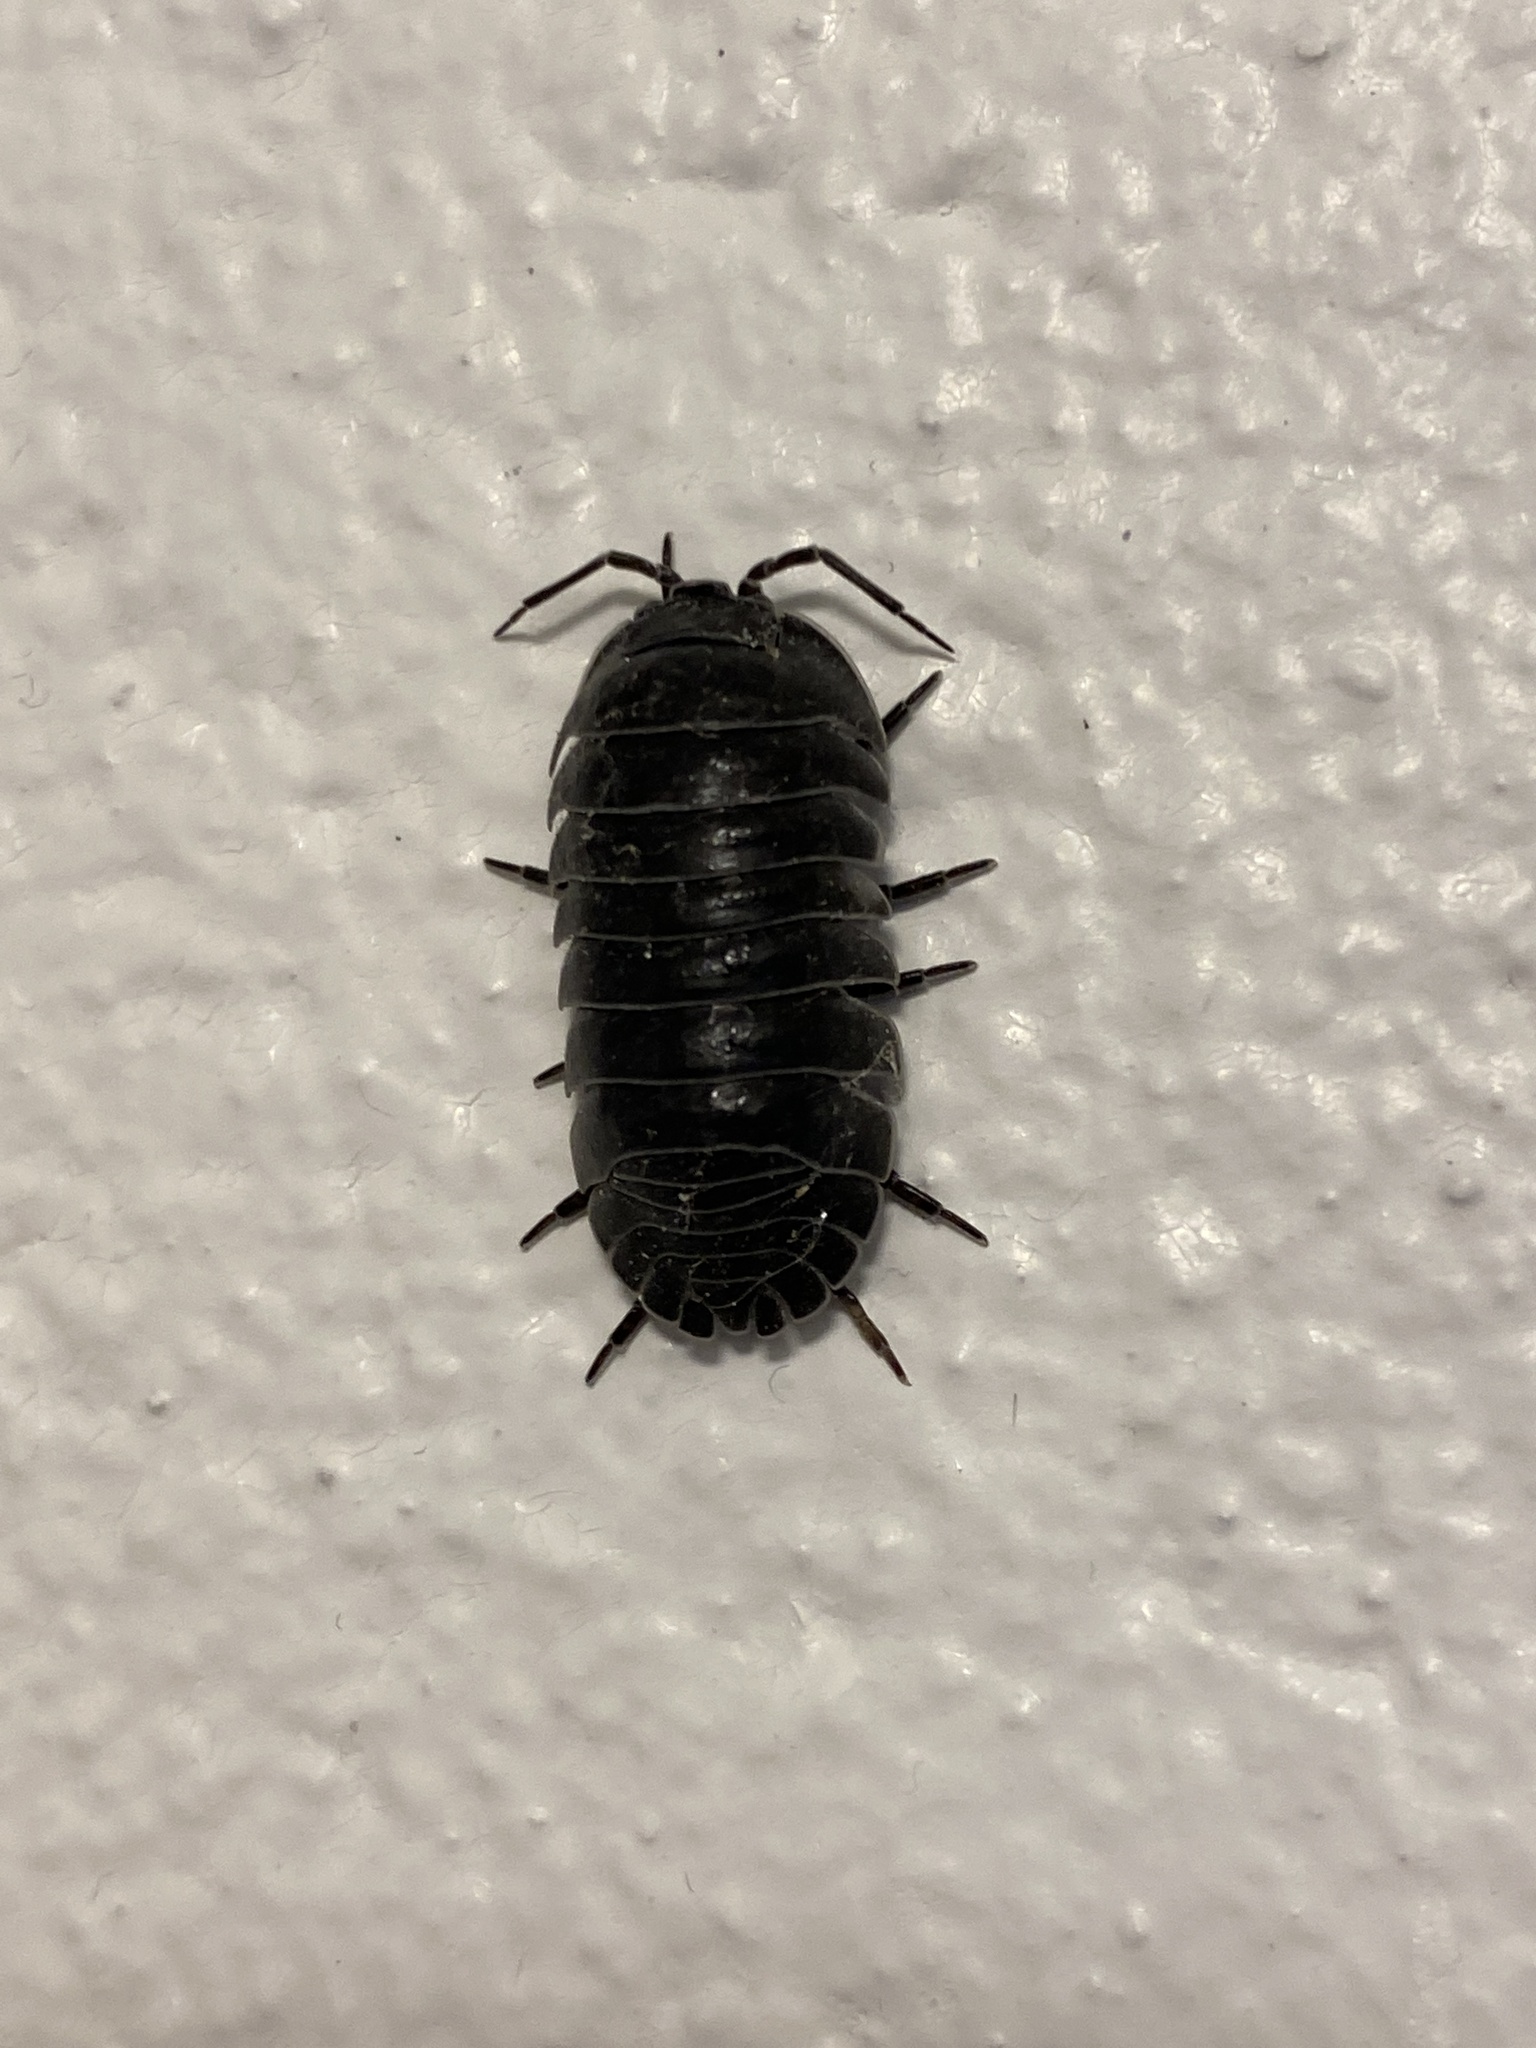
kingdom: Animalia
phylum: Arthropoda
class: Malacostraca
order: Isopoda
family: Armadillidiidae
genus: Armadillidium
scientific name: Armadillidium depressum
